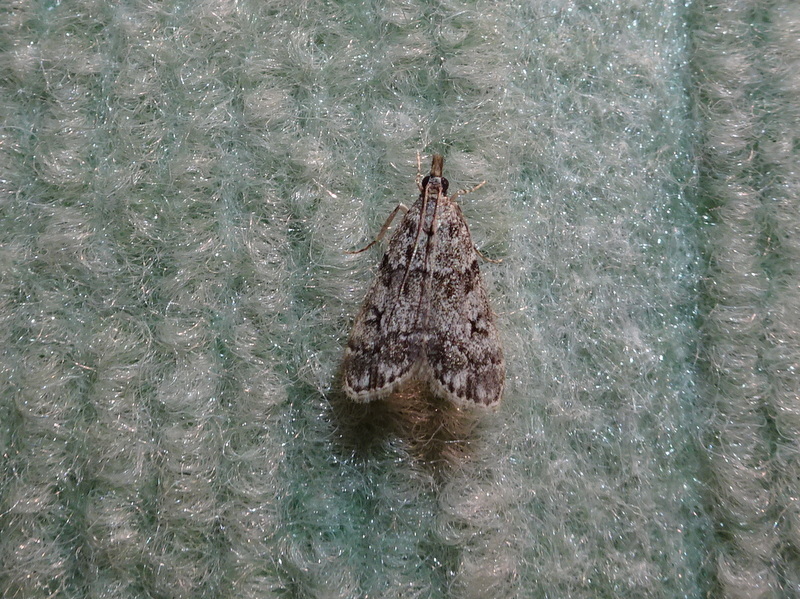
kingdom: Animalia
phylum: Arthropoda
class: Insecta
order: Lepidoptera
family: Crambidae
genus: Eudonia
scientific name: Eudonia lacustrata
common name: Little grey
